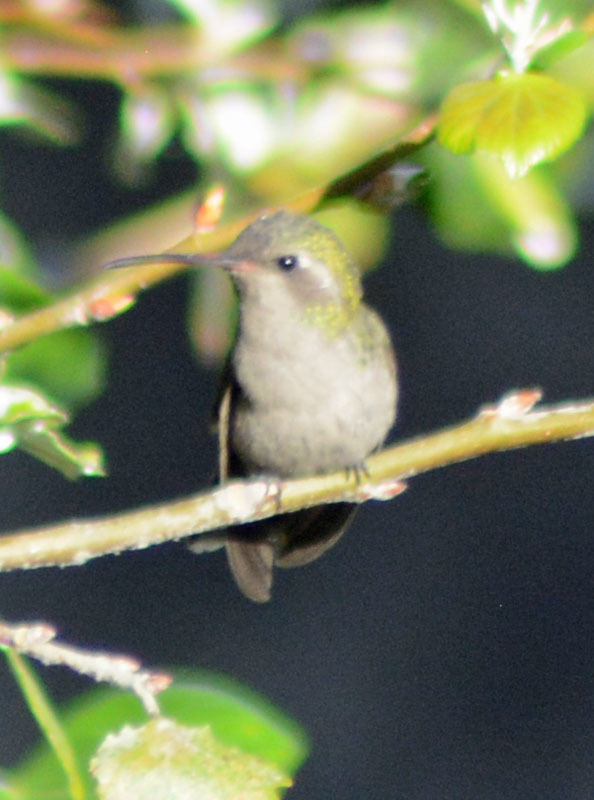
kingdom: Animalia
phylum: Chordata
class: Aves
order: Apodiformes
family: Trochilidae
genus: Cynanthus
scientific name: Cynanthus latirostris
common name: Broad-billed hummingbird
